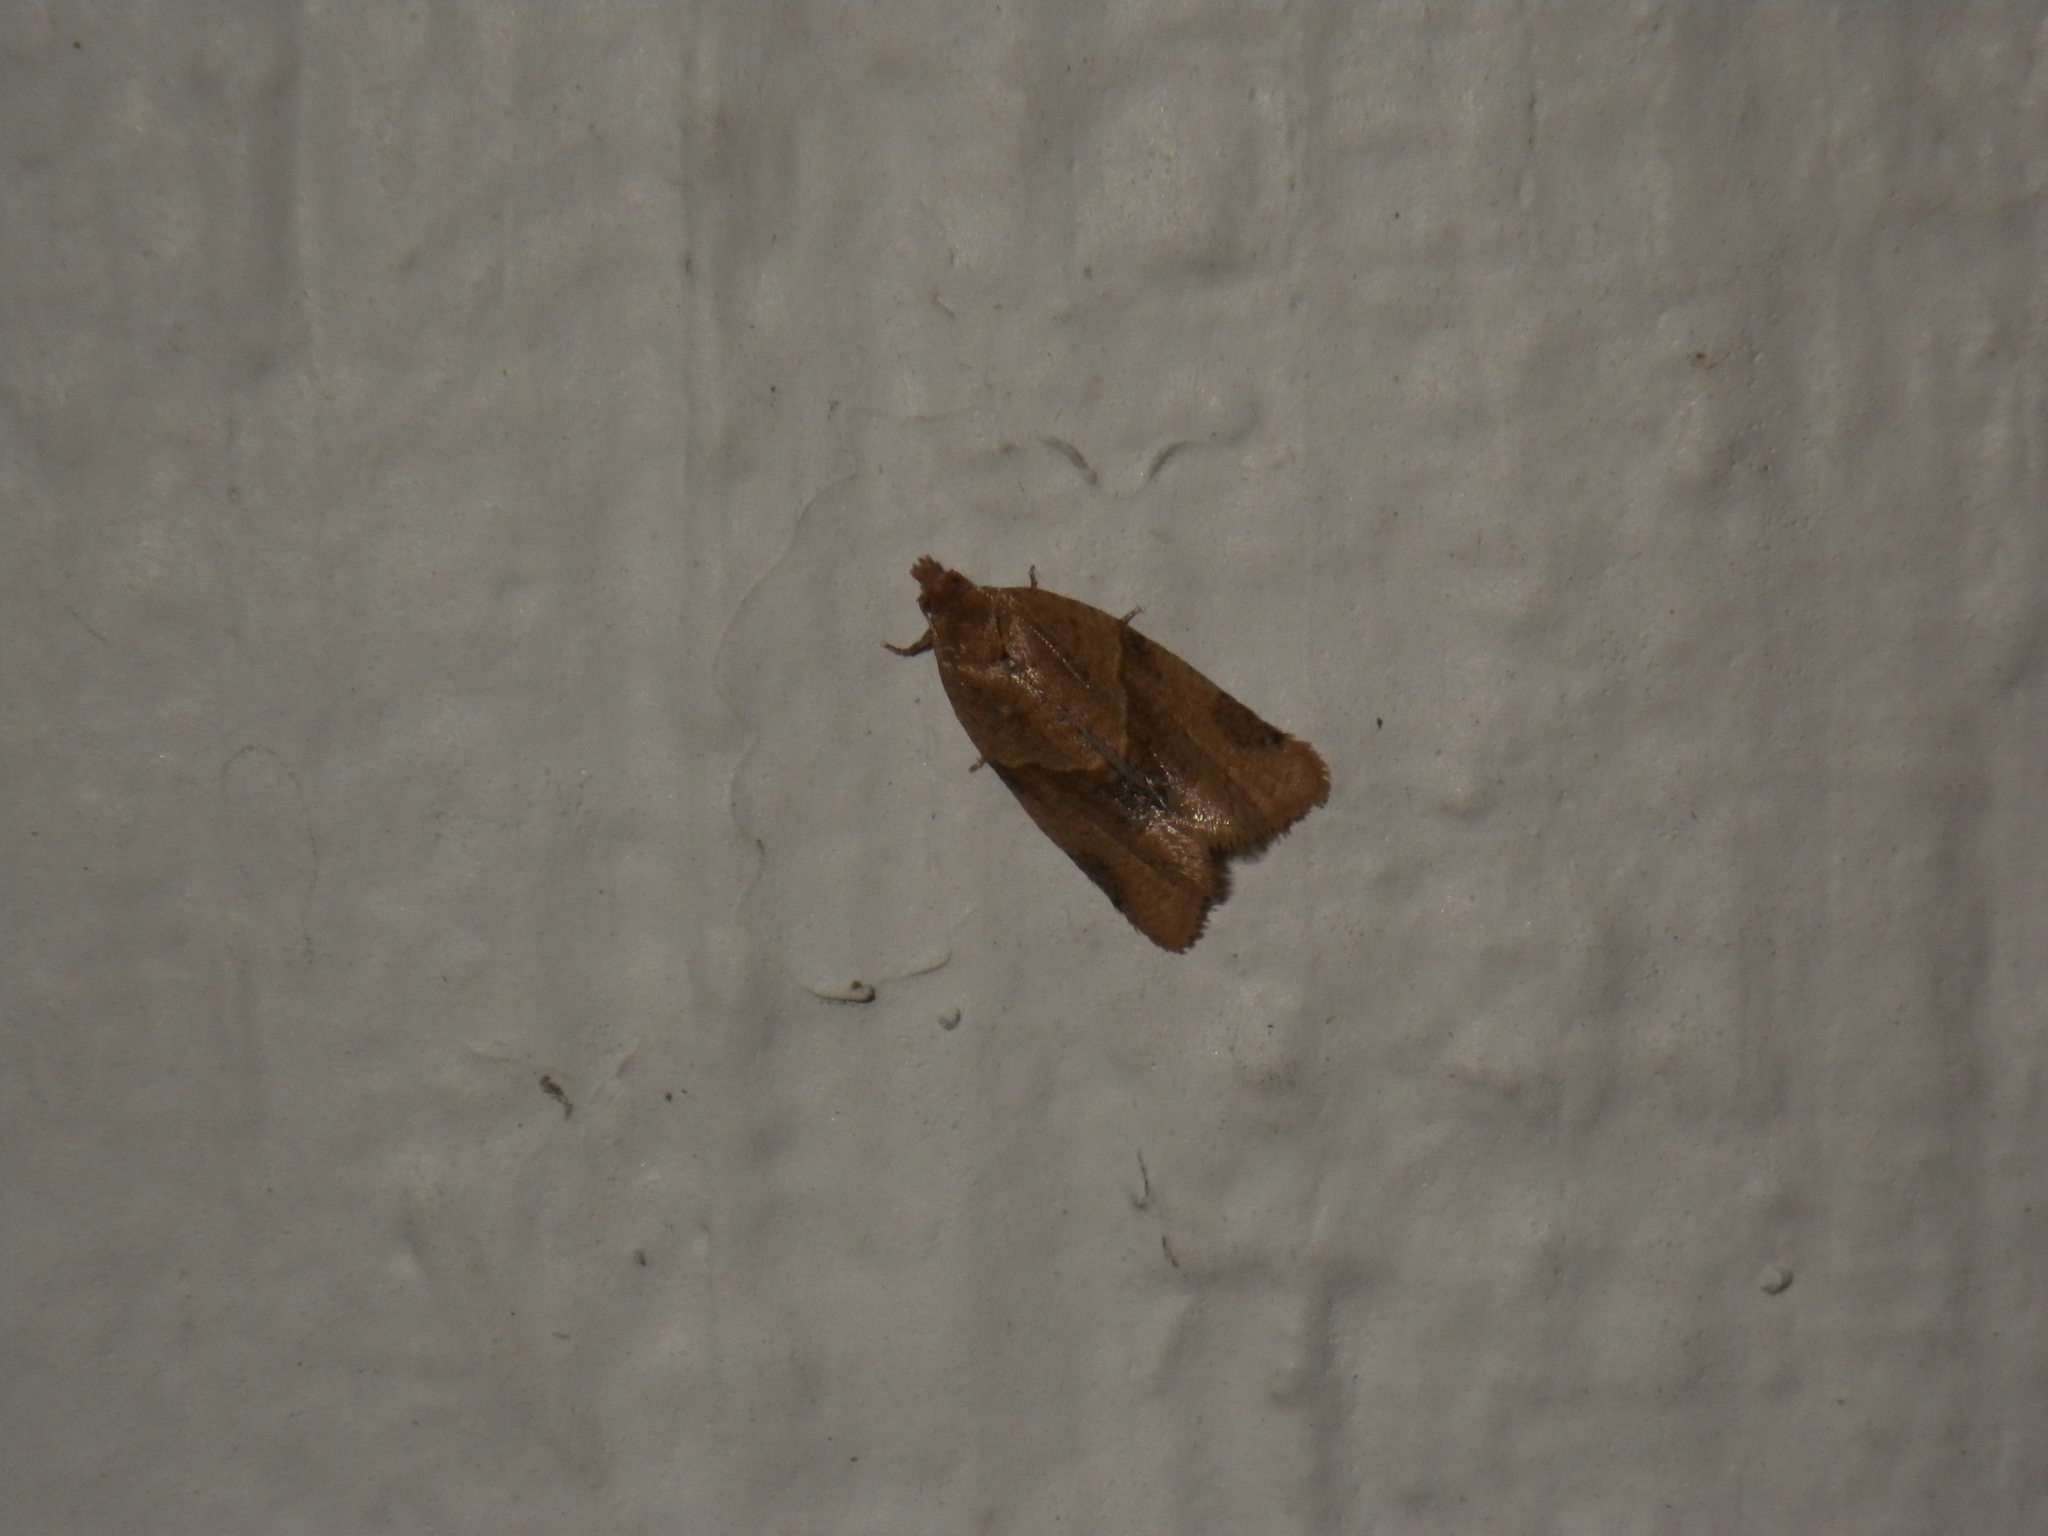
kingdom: Animalia
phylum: Arthropoda
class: Insecta
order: Lepidoptera
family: Tortricidae
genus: Clepsis
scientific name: Clepsis peritana
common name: Garden tortrix
